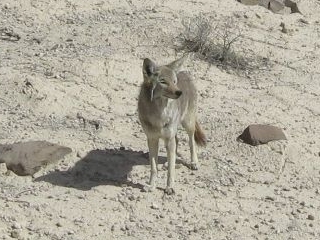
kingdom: Animalia
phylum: Chordata
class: Mammalia
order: Carnivora
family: Canidae
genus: Canis
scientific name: Canis latrans
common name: Coyote
